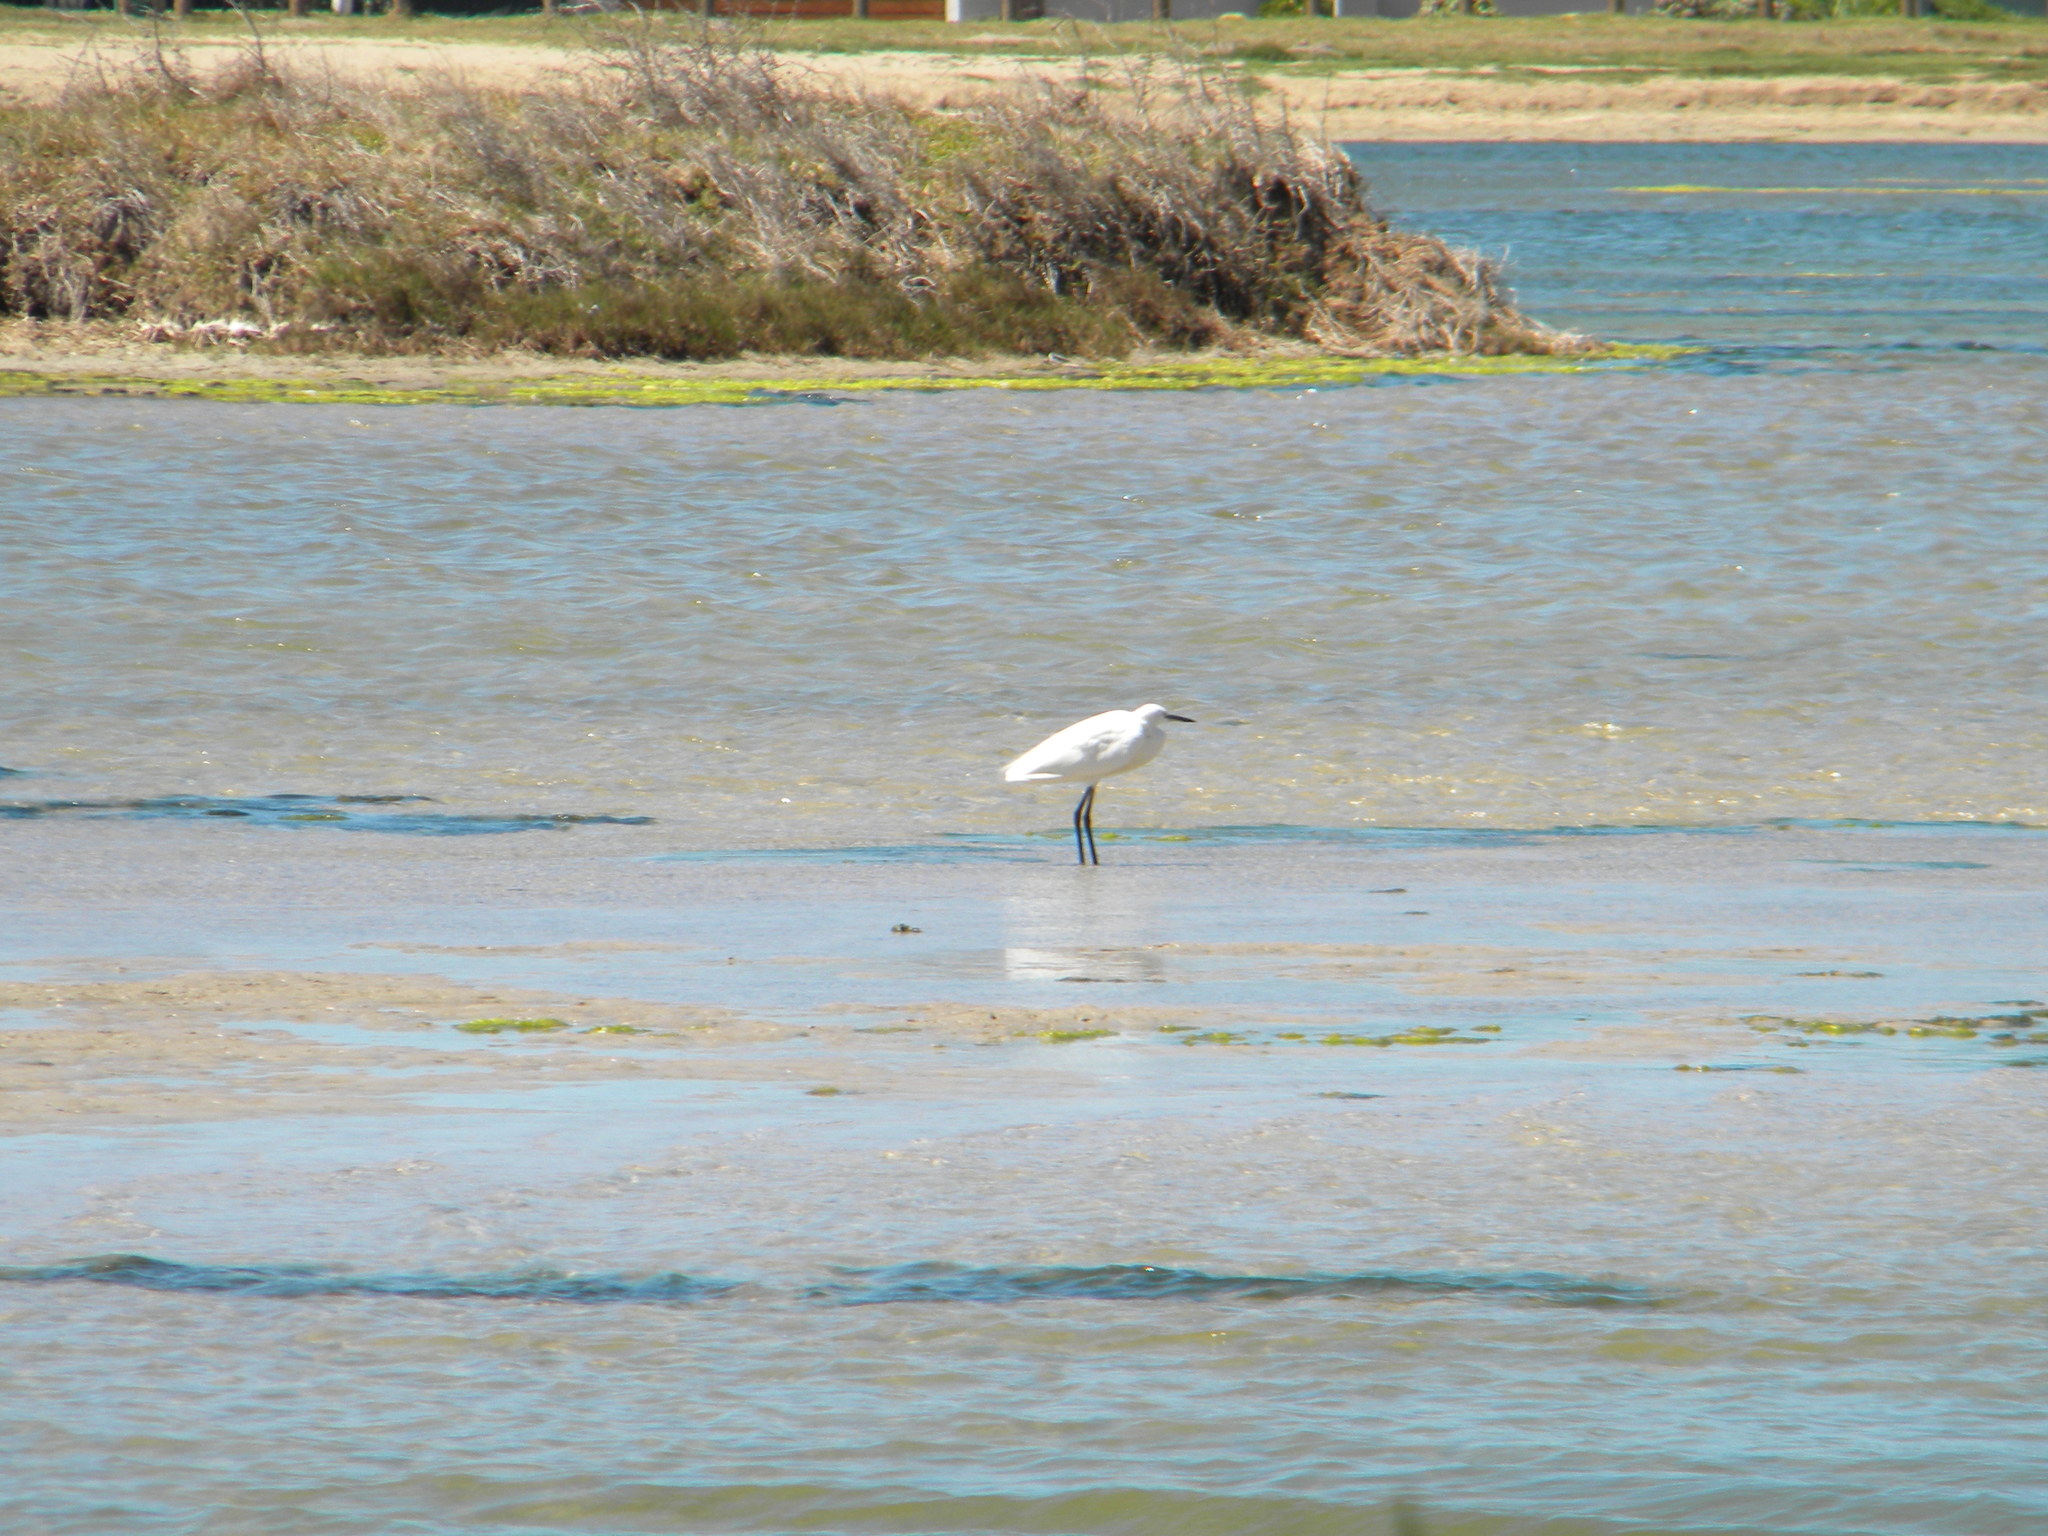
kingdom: Animalia
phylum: Chordata
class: Aves
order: Pelecaniformes
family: Ardeidae
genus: Egretta
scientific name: Egretta garzetta
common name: Little egret
